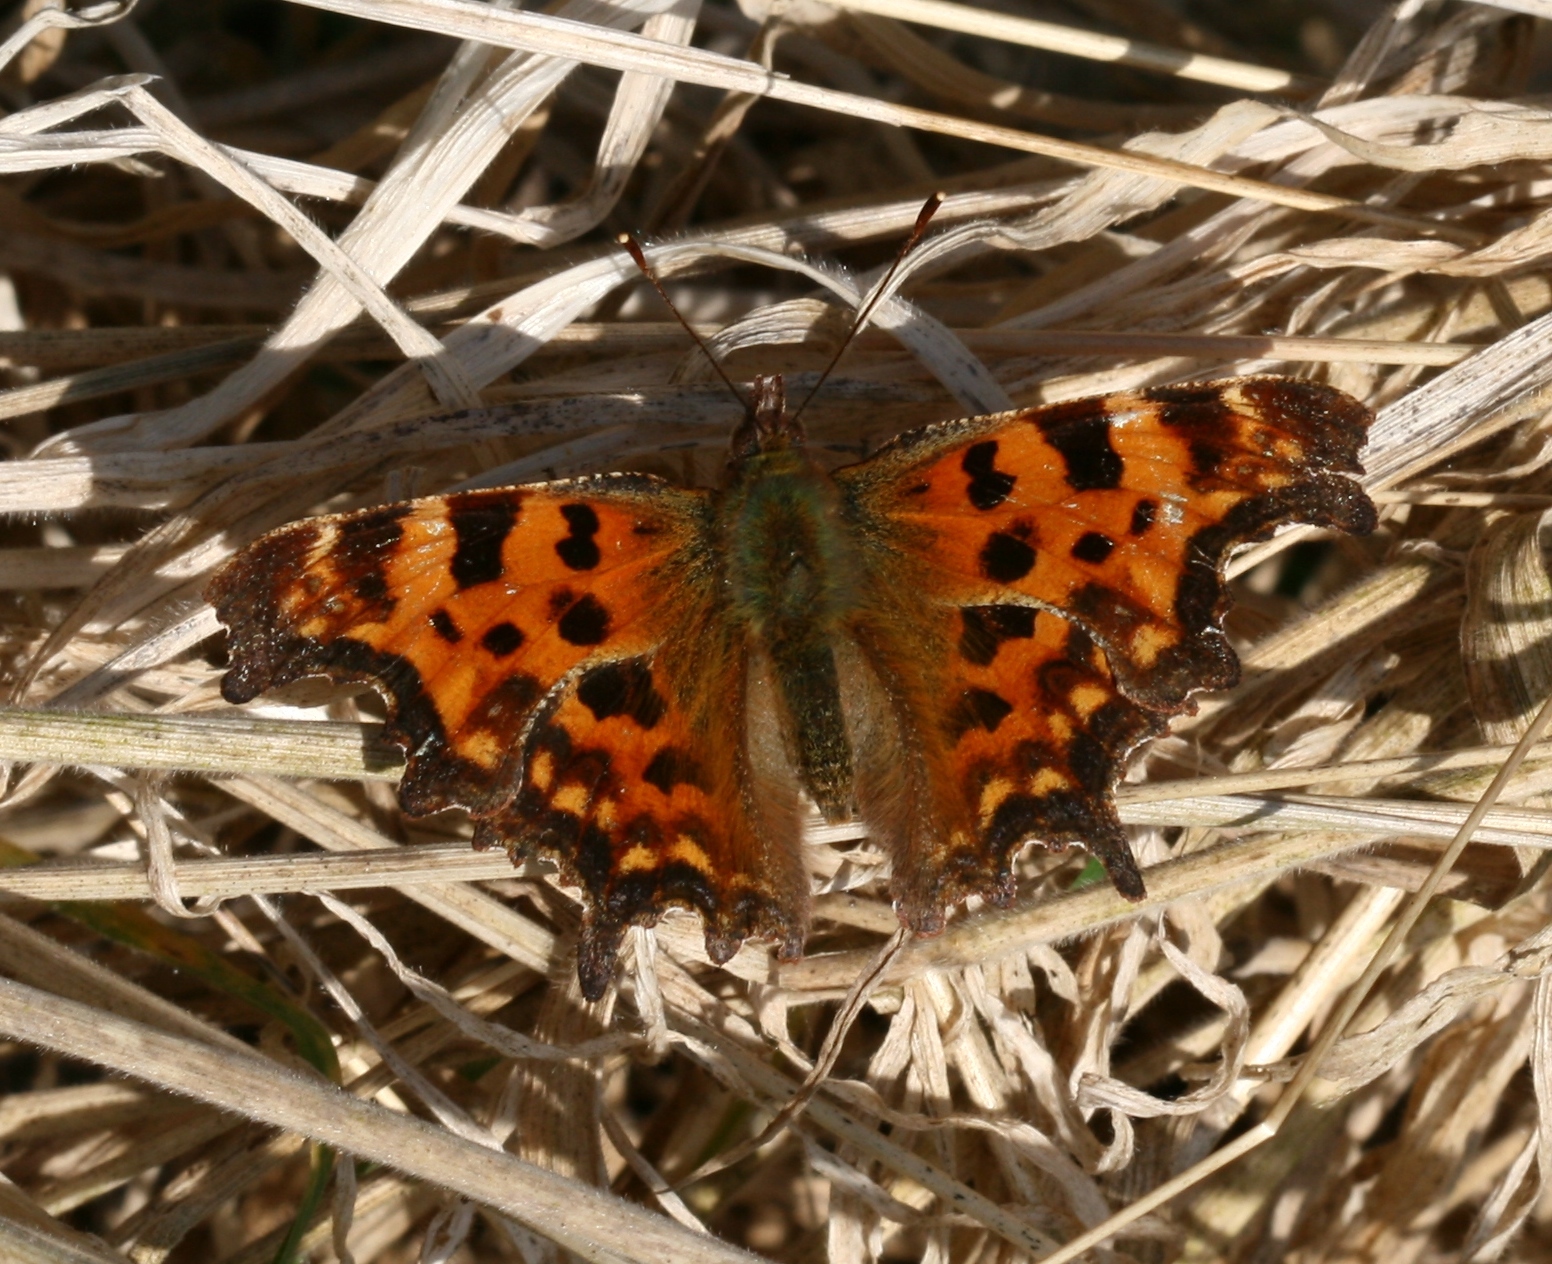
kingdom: Animalia
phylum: Arthropoda
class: Insecta
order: Lepidoptera
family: Nymphalidae
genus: Polygonia
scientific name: Polygonia c-album
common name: Comma
